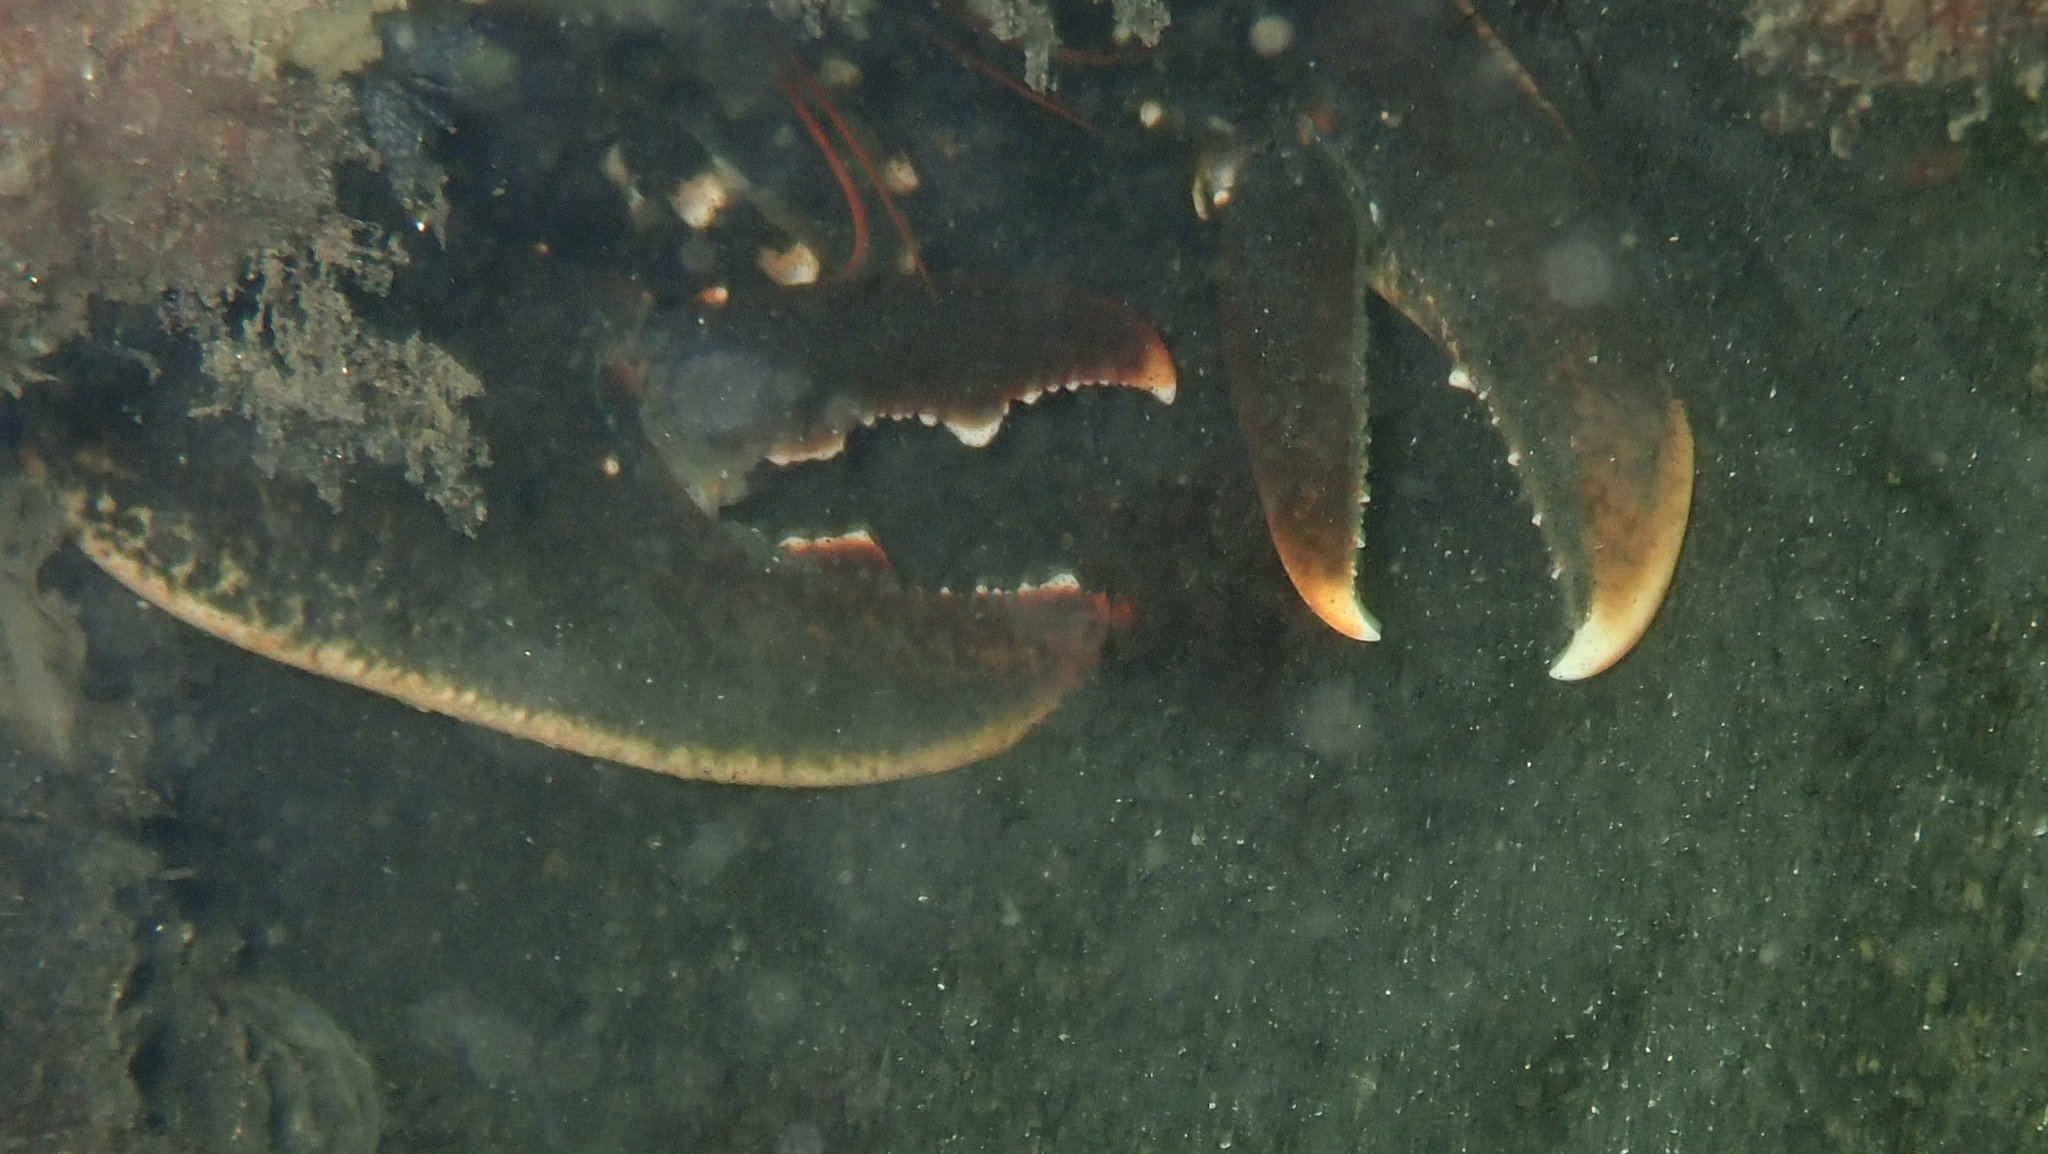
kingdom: Animalia
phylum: Arthropoda
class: Malacostraca
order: Decapoda
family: Nephropidae
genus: Homarus
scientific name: Homarus gammarus
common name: European lobster
